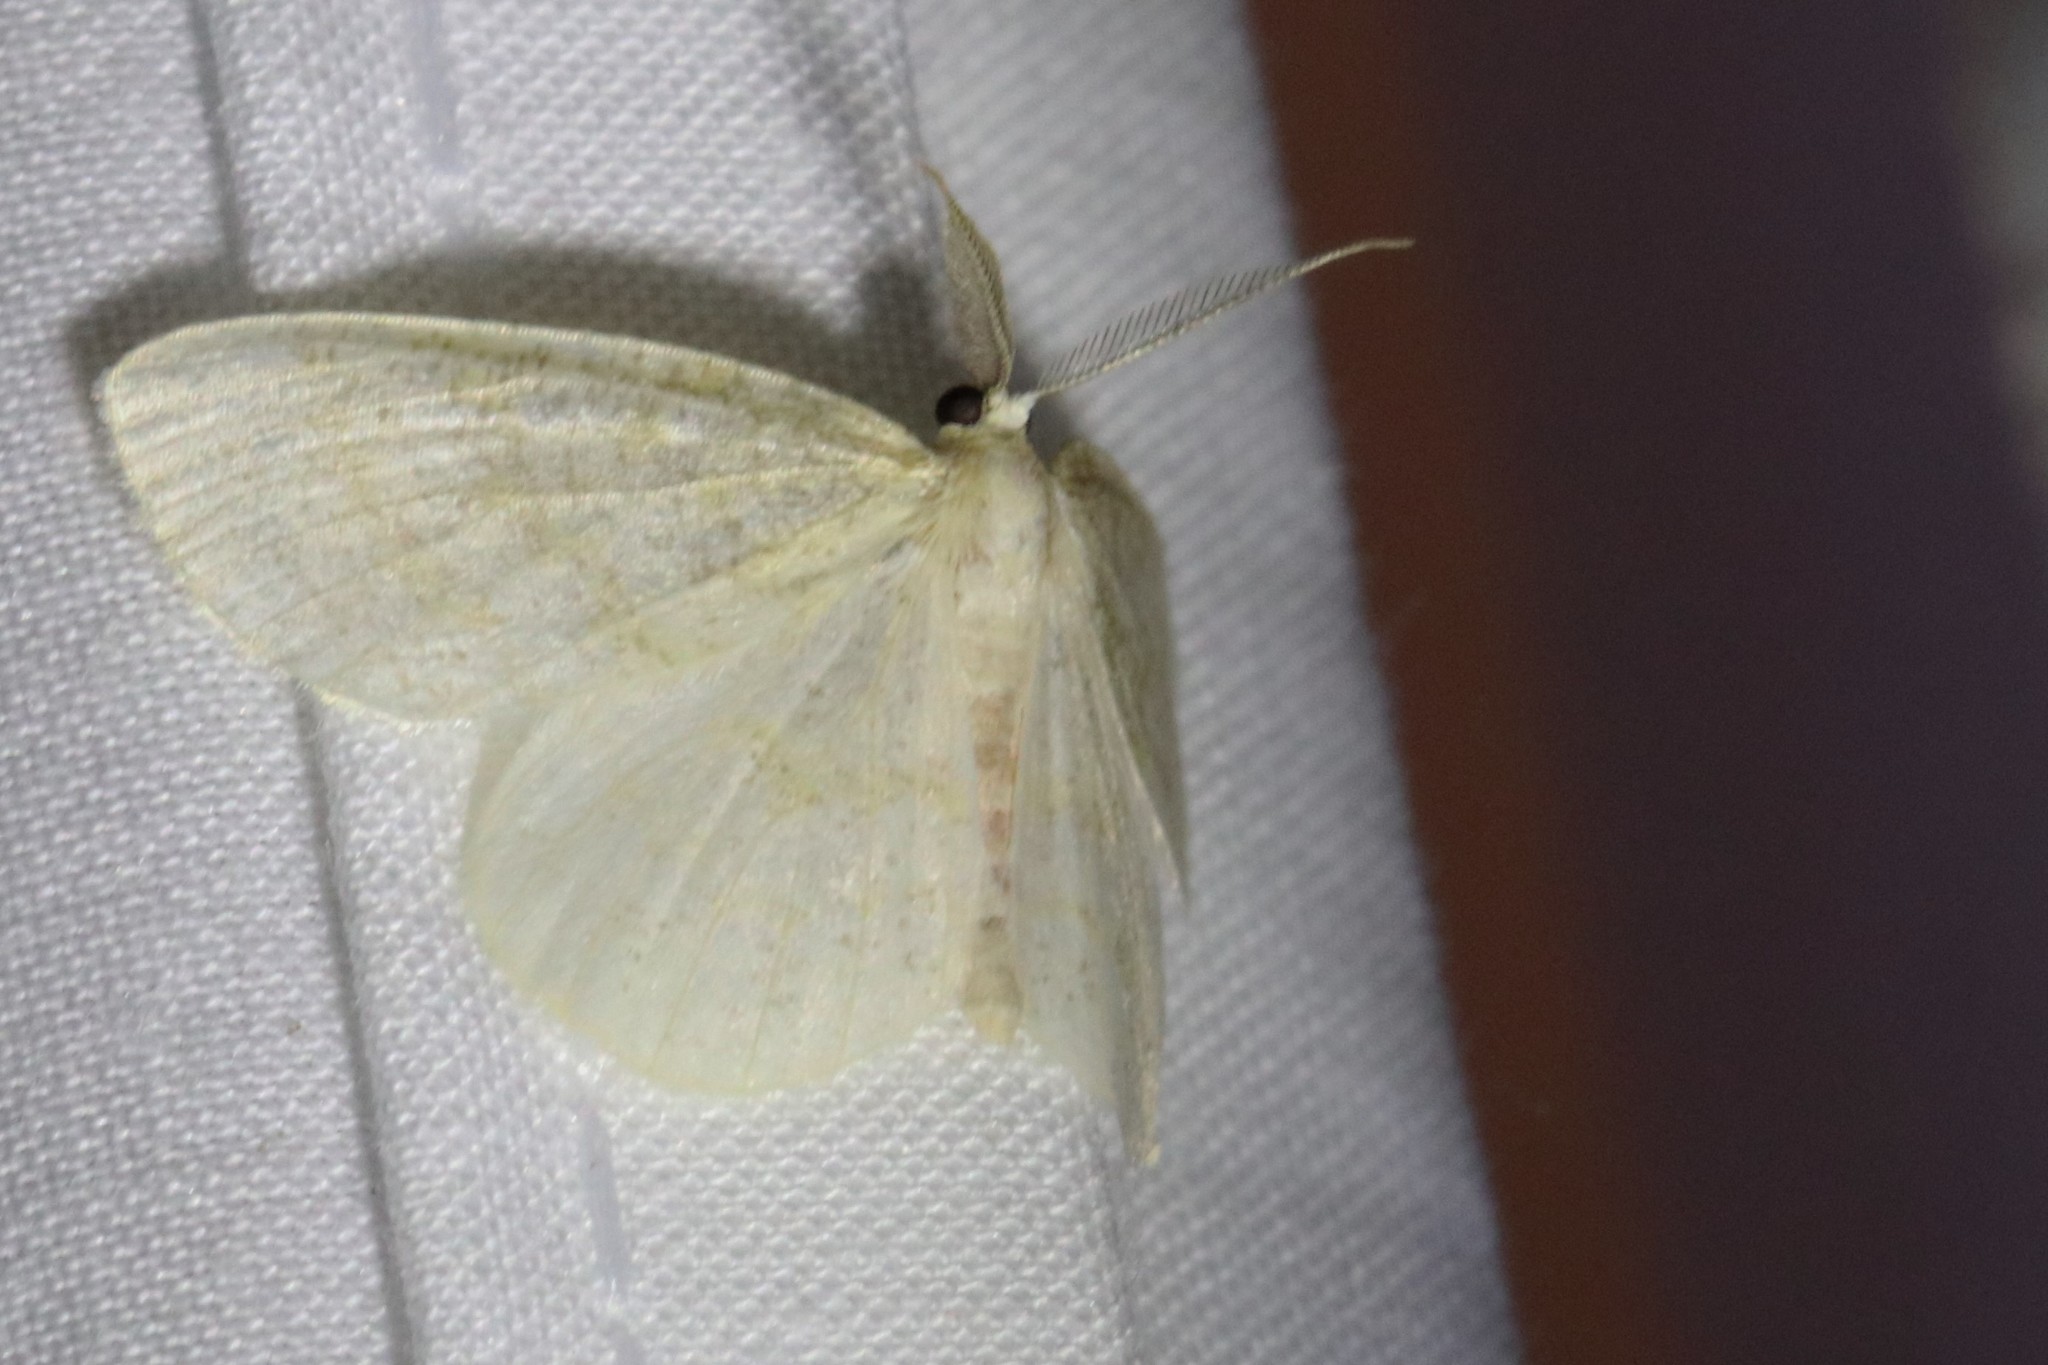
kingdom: Animalia
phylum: Arthropoda
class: Insecta
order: Lepidoptera
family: Geometridae
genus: Cabera
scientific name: Cabera erythemaria
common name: Yellow-dusted cream moth
